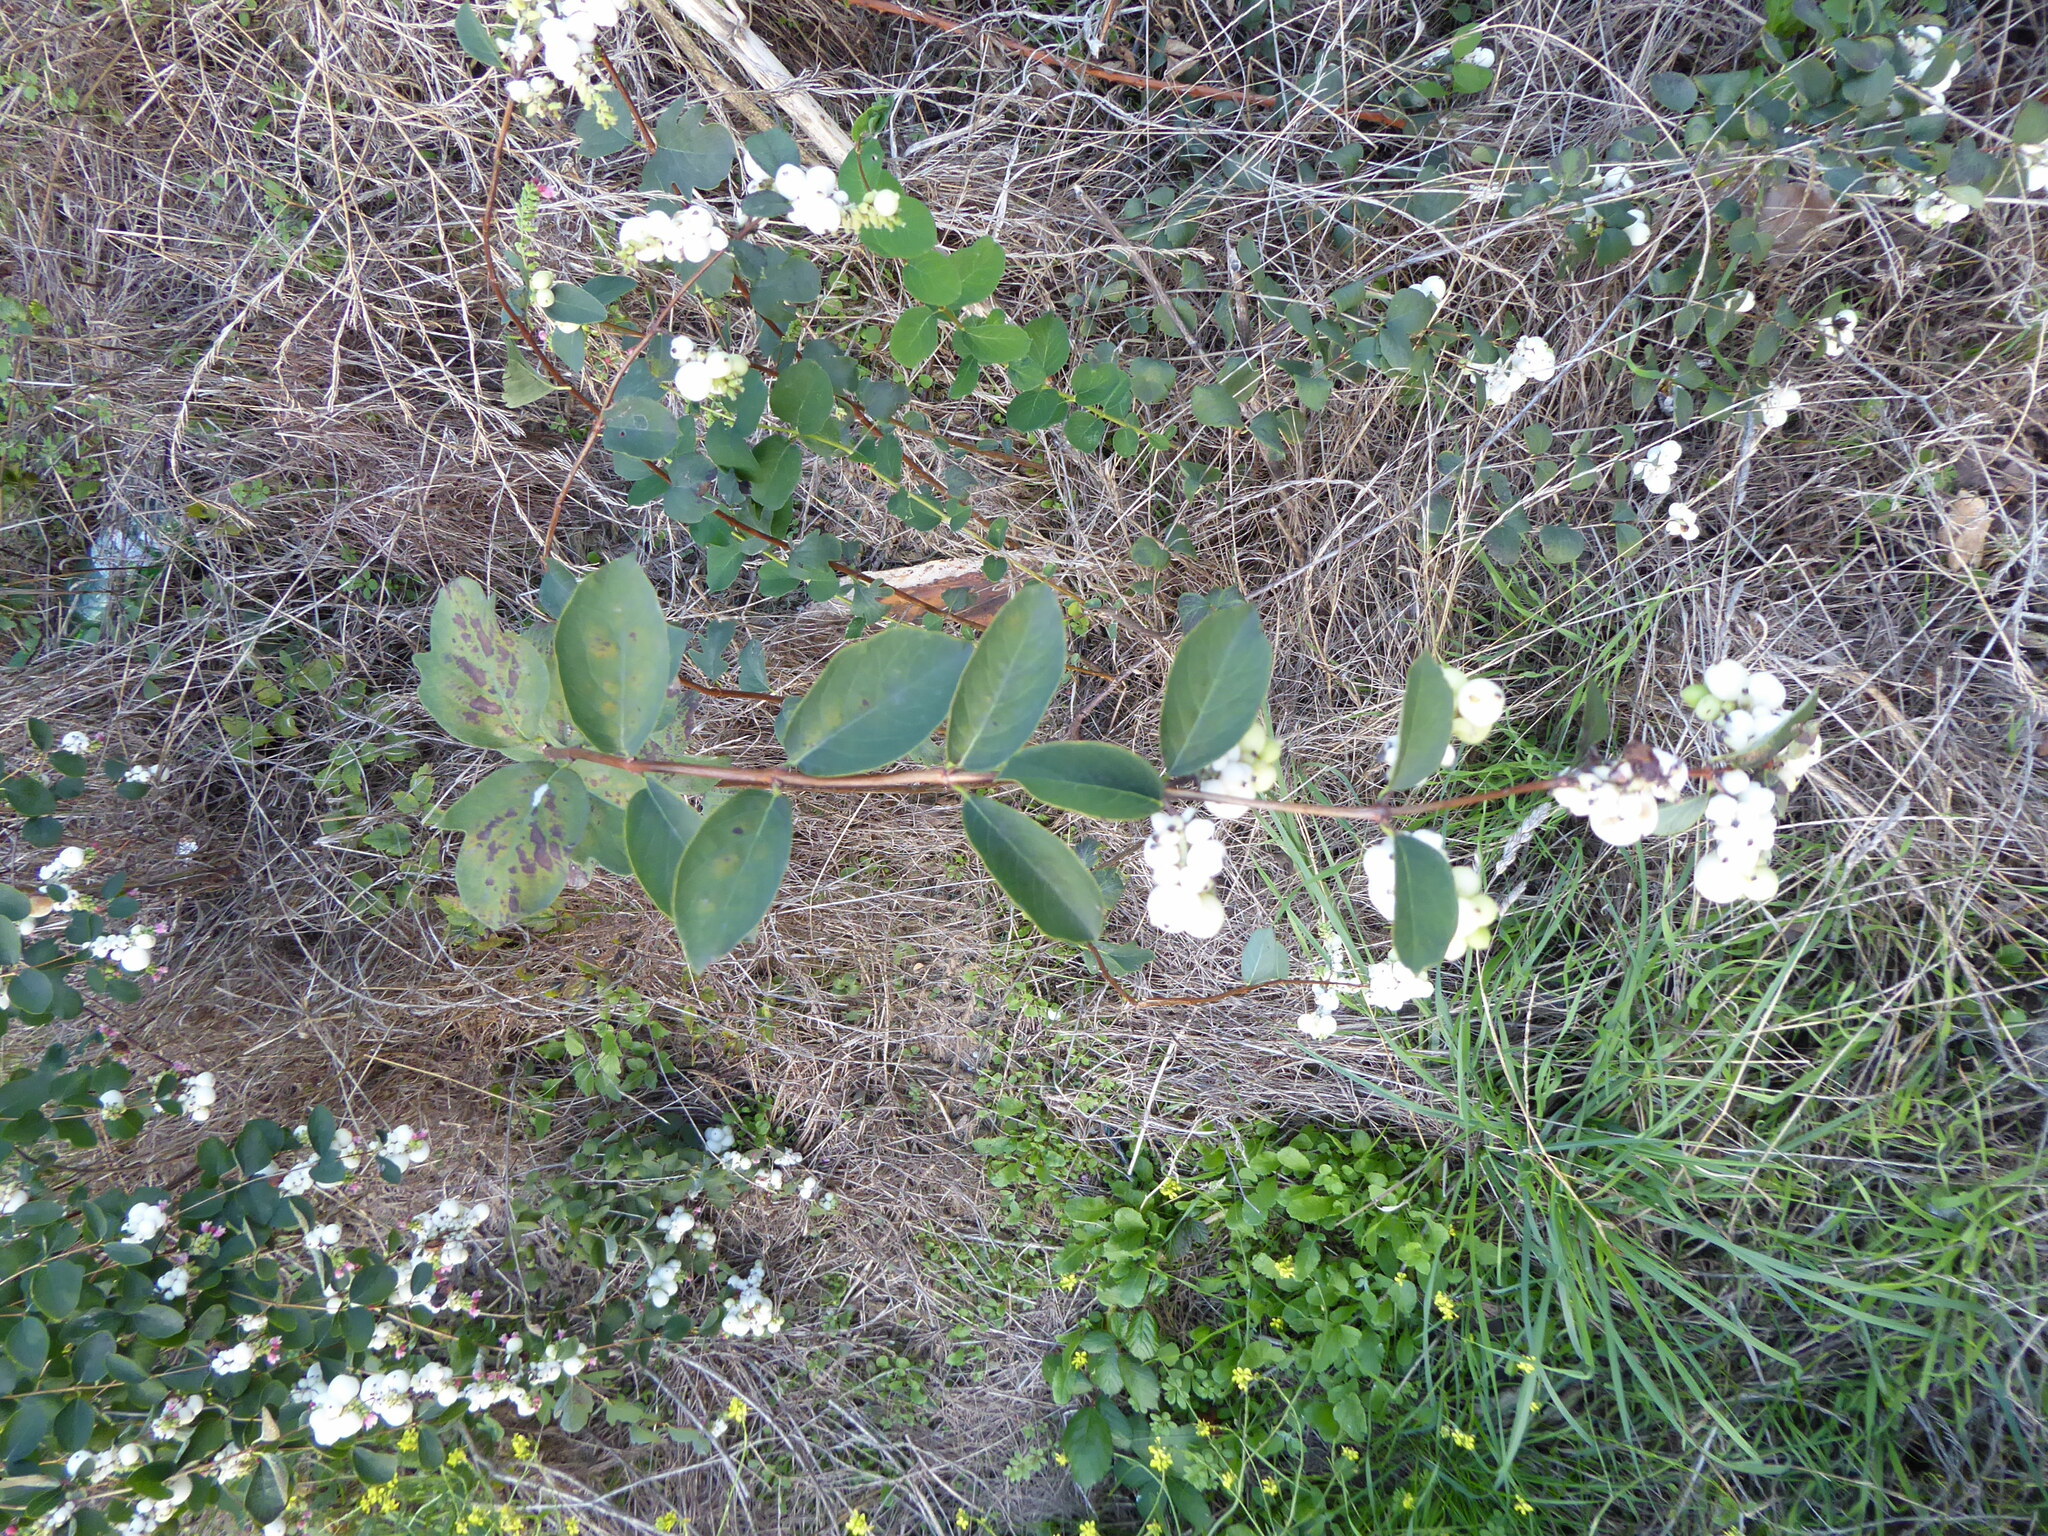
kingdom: Plantae
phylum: Tracheophyta
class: Magnoliopsida
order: Dipsacales
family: Caprifoliaceae
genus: Symphoricarpos
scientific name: Symphoricarpos albus
